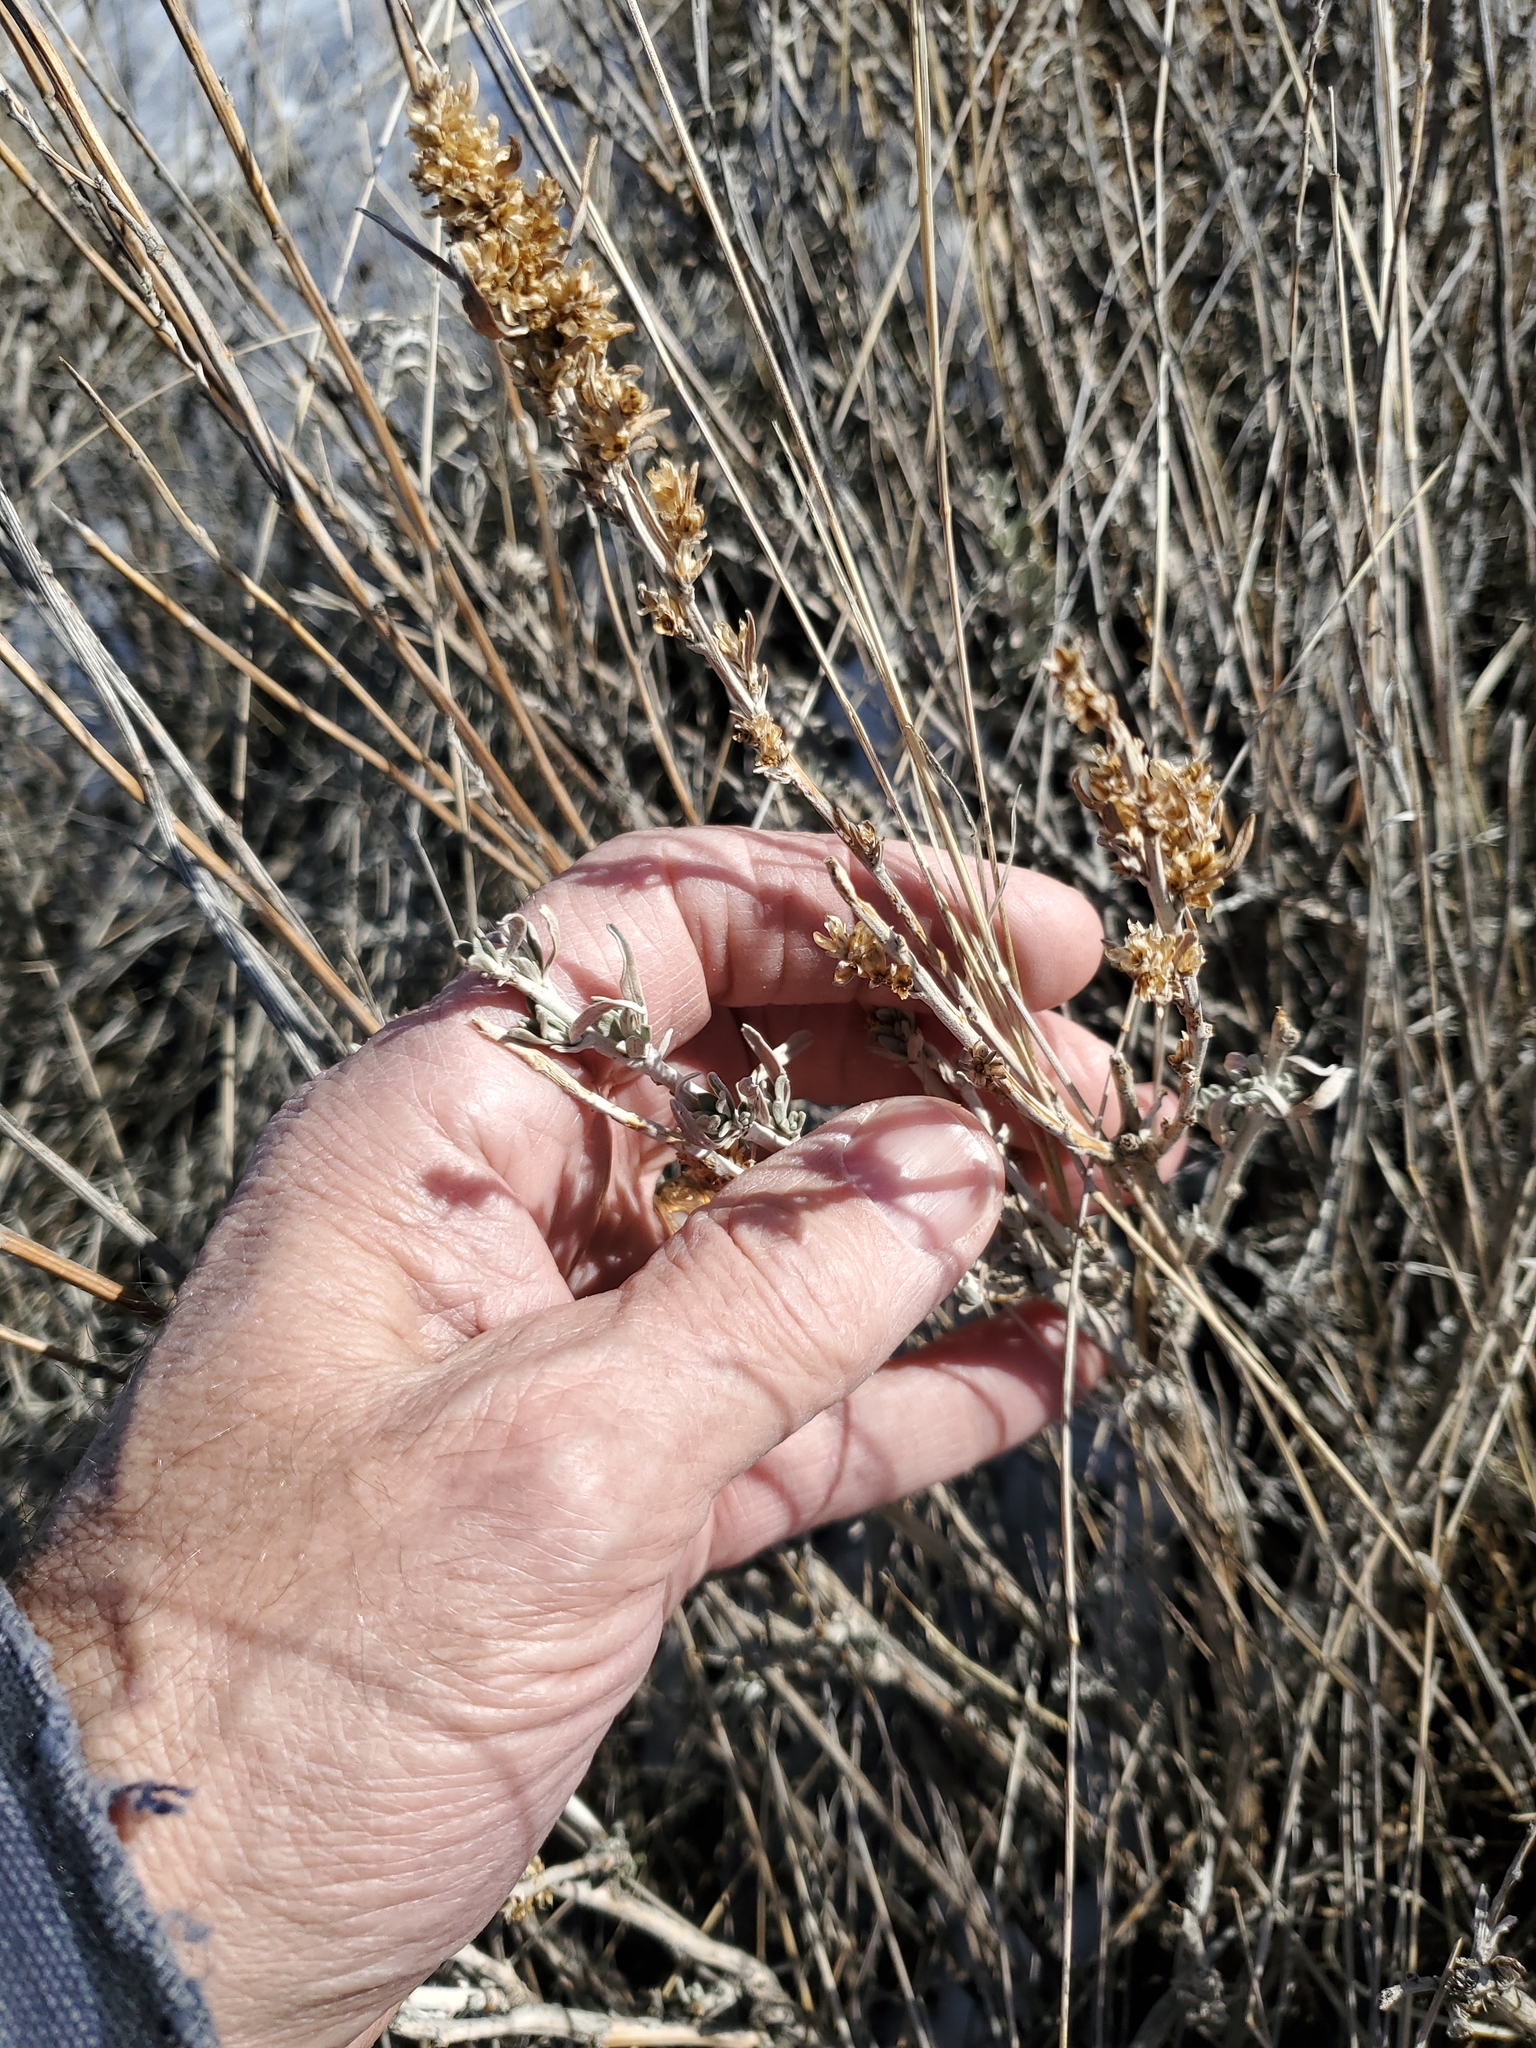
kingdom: Plantae
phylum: Tracheophyta
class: Magnoliopsida
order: Asterales
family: Asteraceae
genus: Artemisia
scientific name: Artemisia cana
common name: Silver sagebrush
